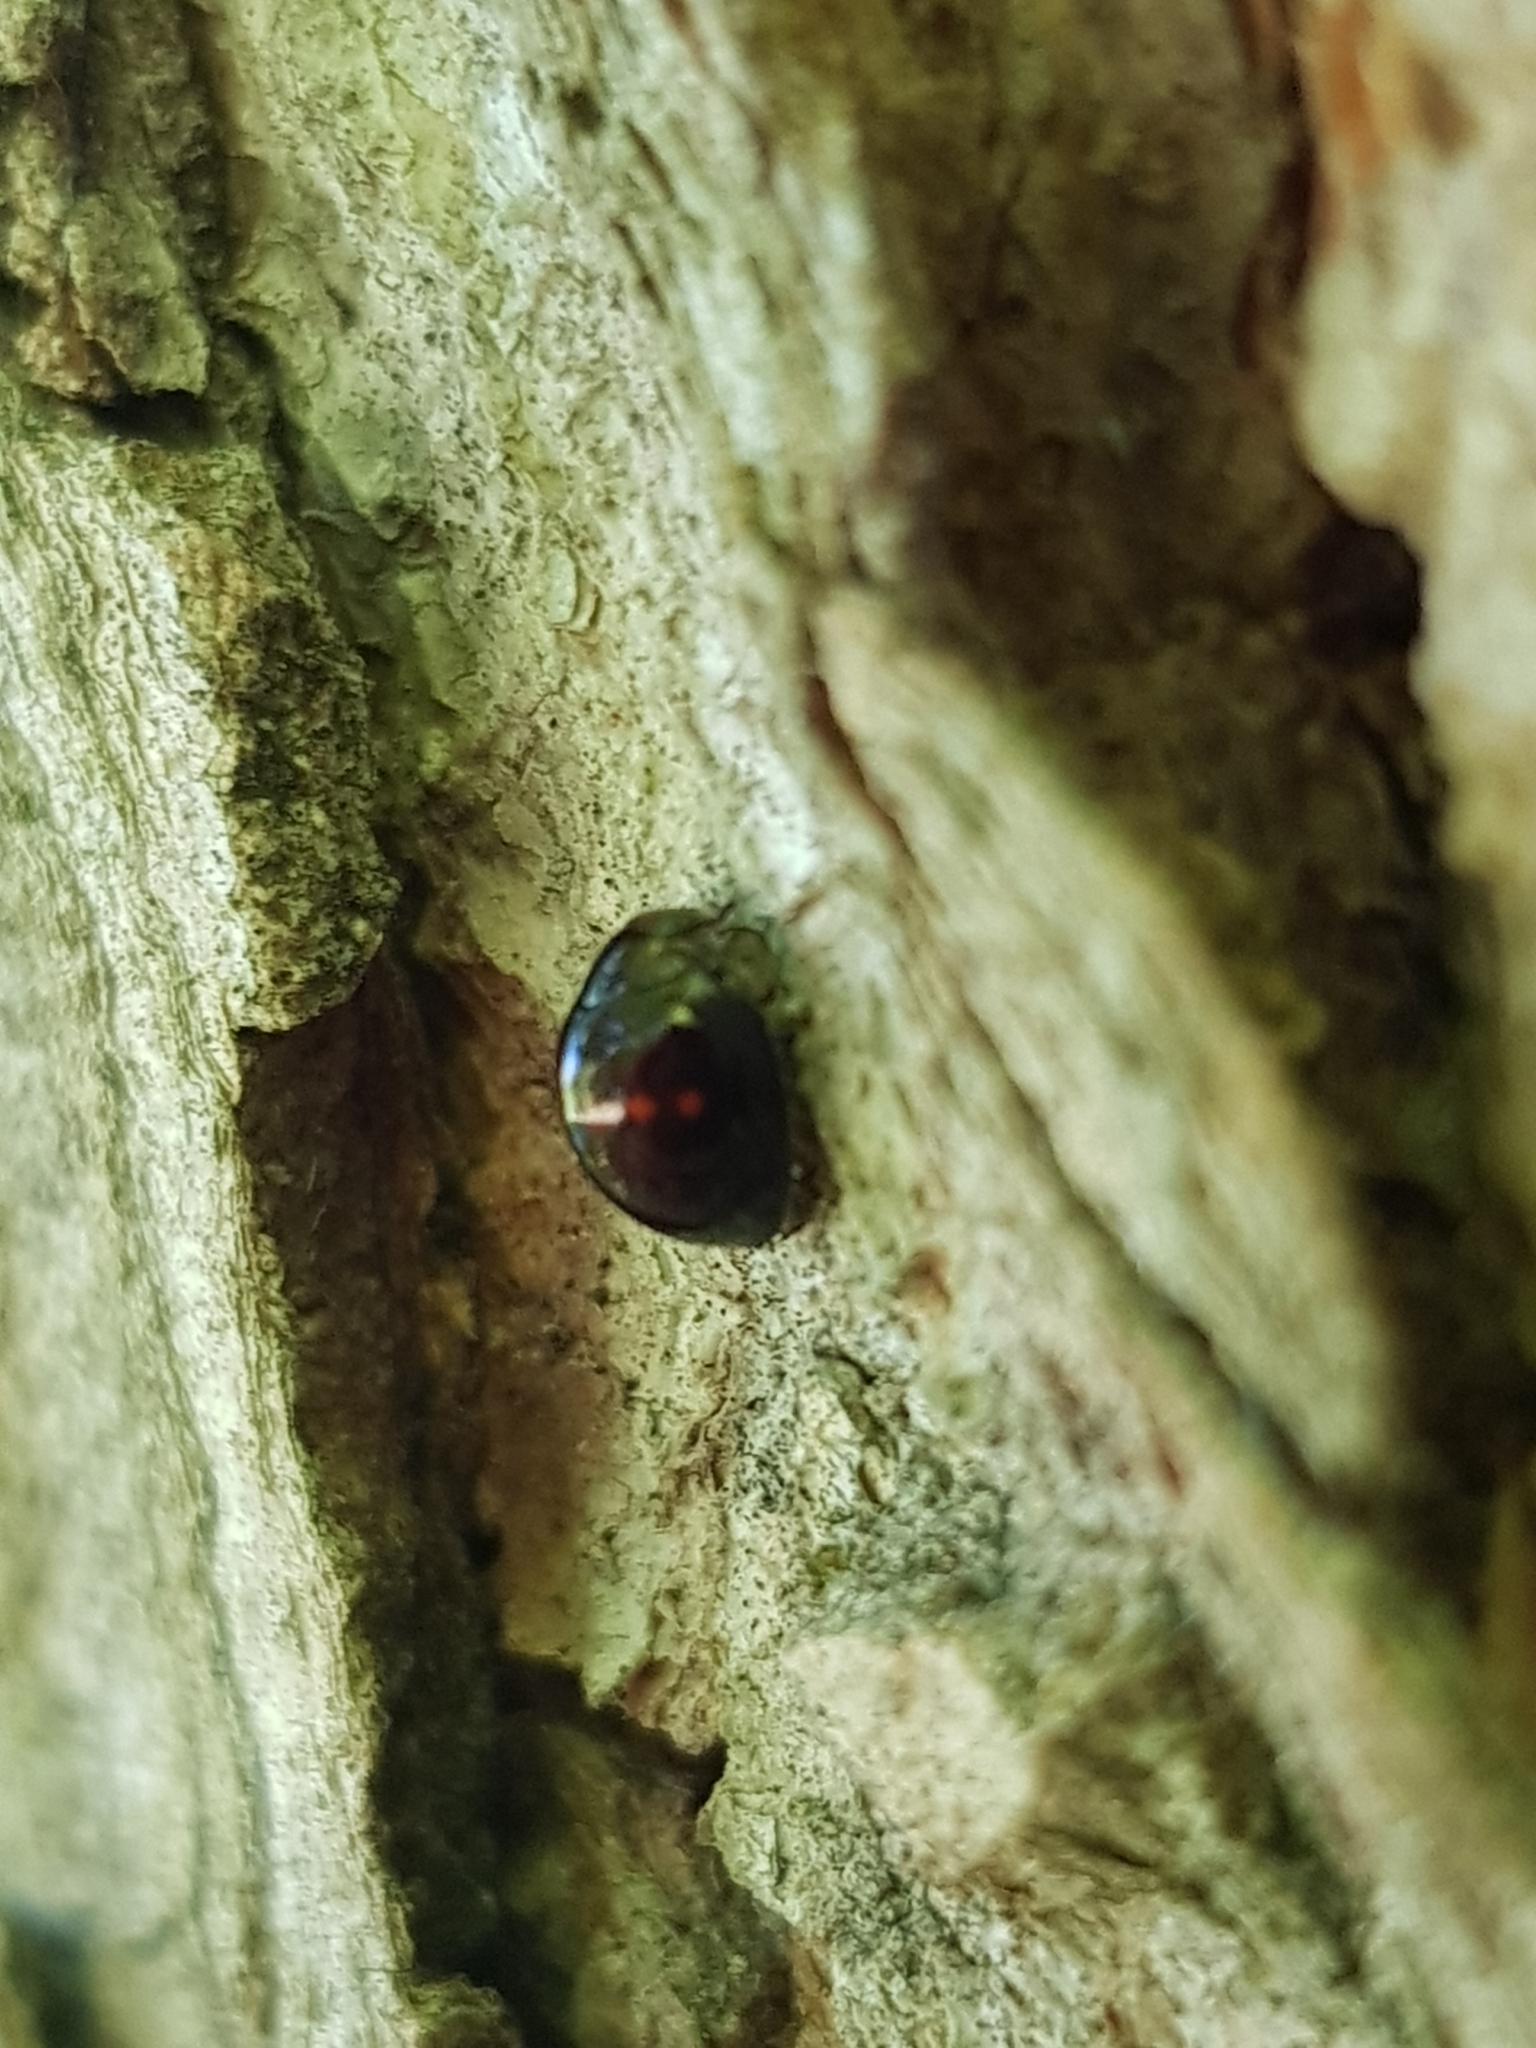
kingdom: Animalia
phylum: Arthropoda
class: Insecta
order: Coleoptera
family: Coccinellidae
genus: Chilocorus
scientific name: Chilocorus bipustulatus
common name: Heather ladybird
